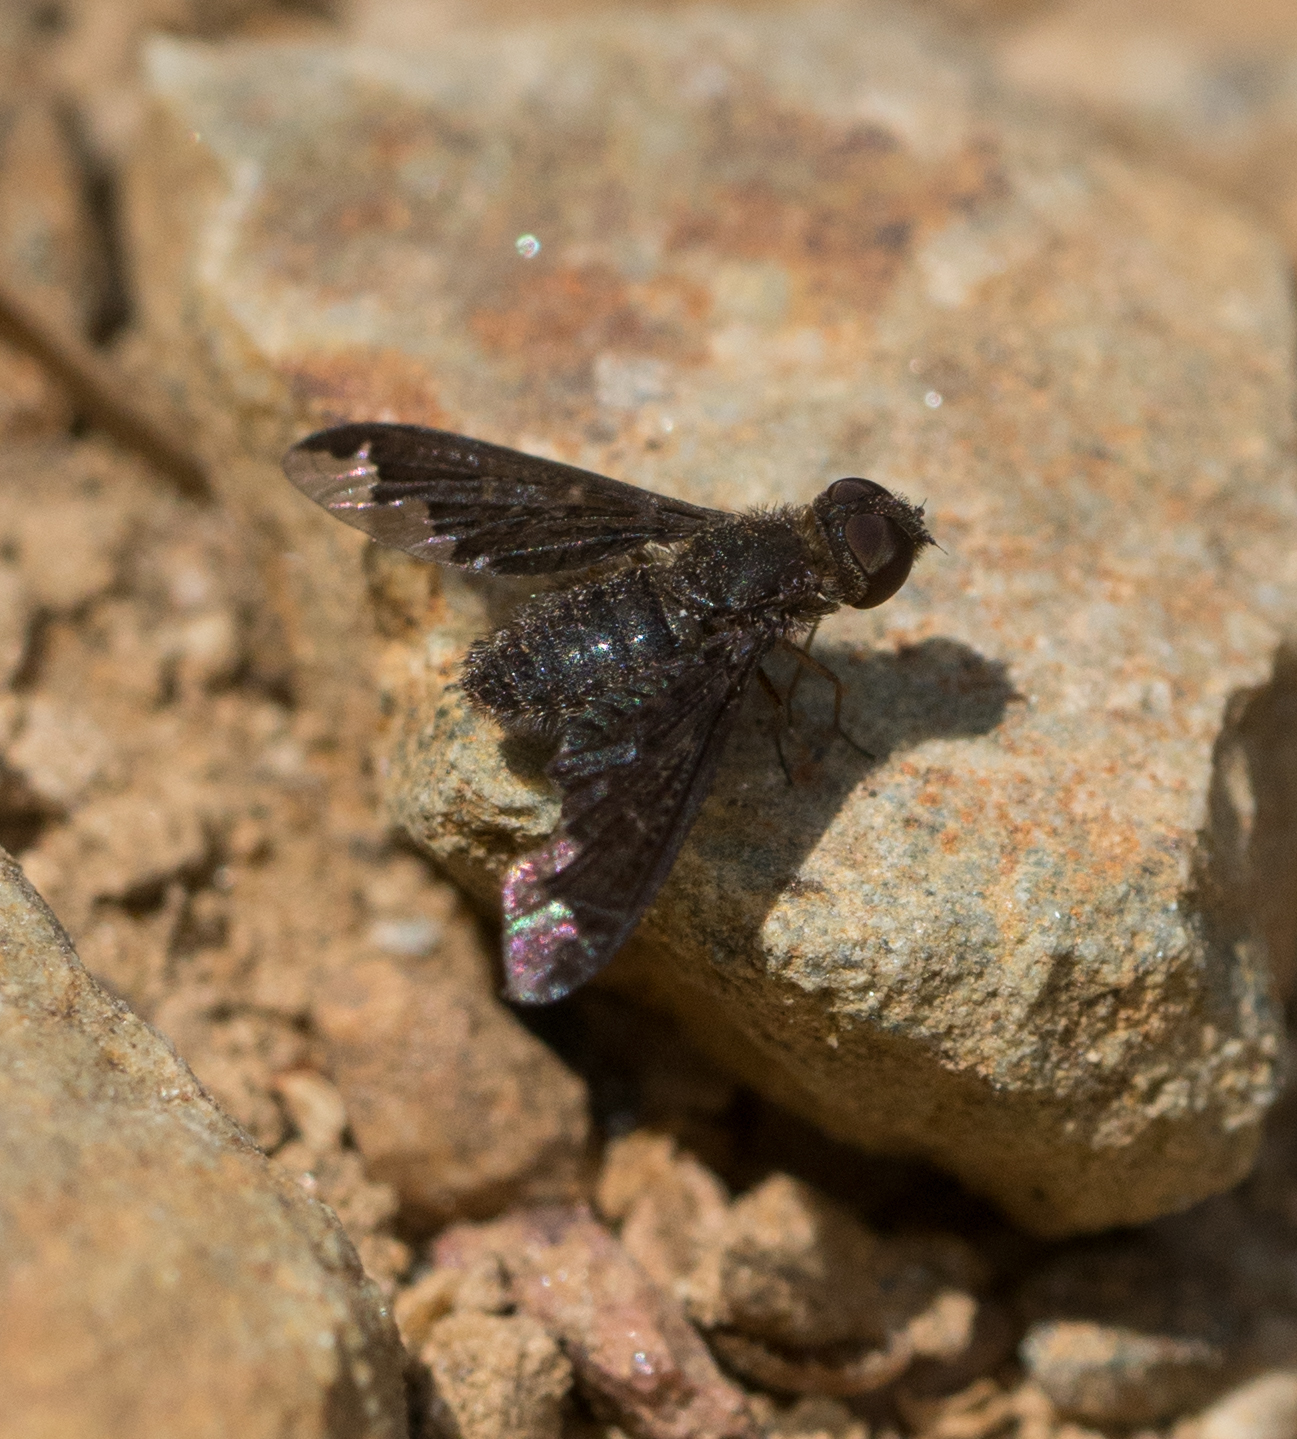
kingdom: Animalia
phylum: Arthropoda
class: Insecta
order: Diptera
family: Bombyliidae
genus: Hemipenthes
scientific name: Hemipenthes sinuosus
